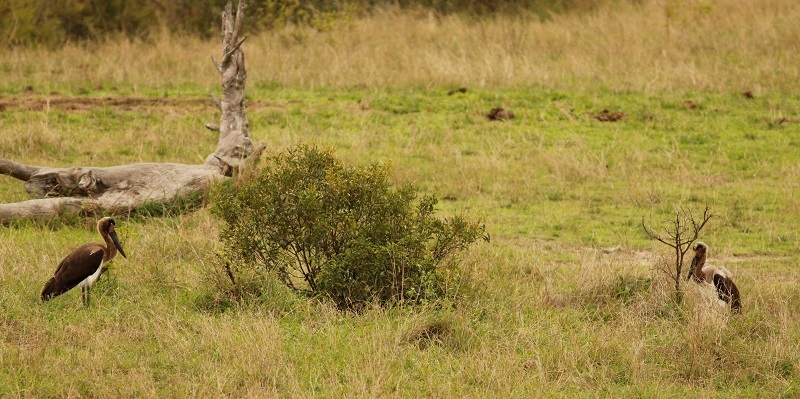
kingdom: Animalia
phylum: Chordata
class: Aves
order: Ciconiiformes
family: Ciconiidae
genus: Ephippiorhynchus
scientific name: Ephippiorhynchus senegalensis
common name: Saddle-billed stork
